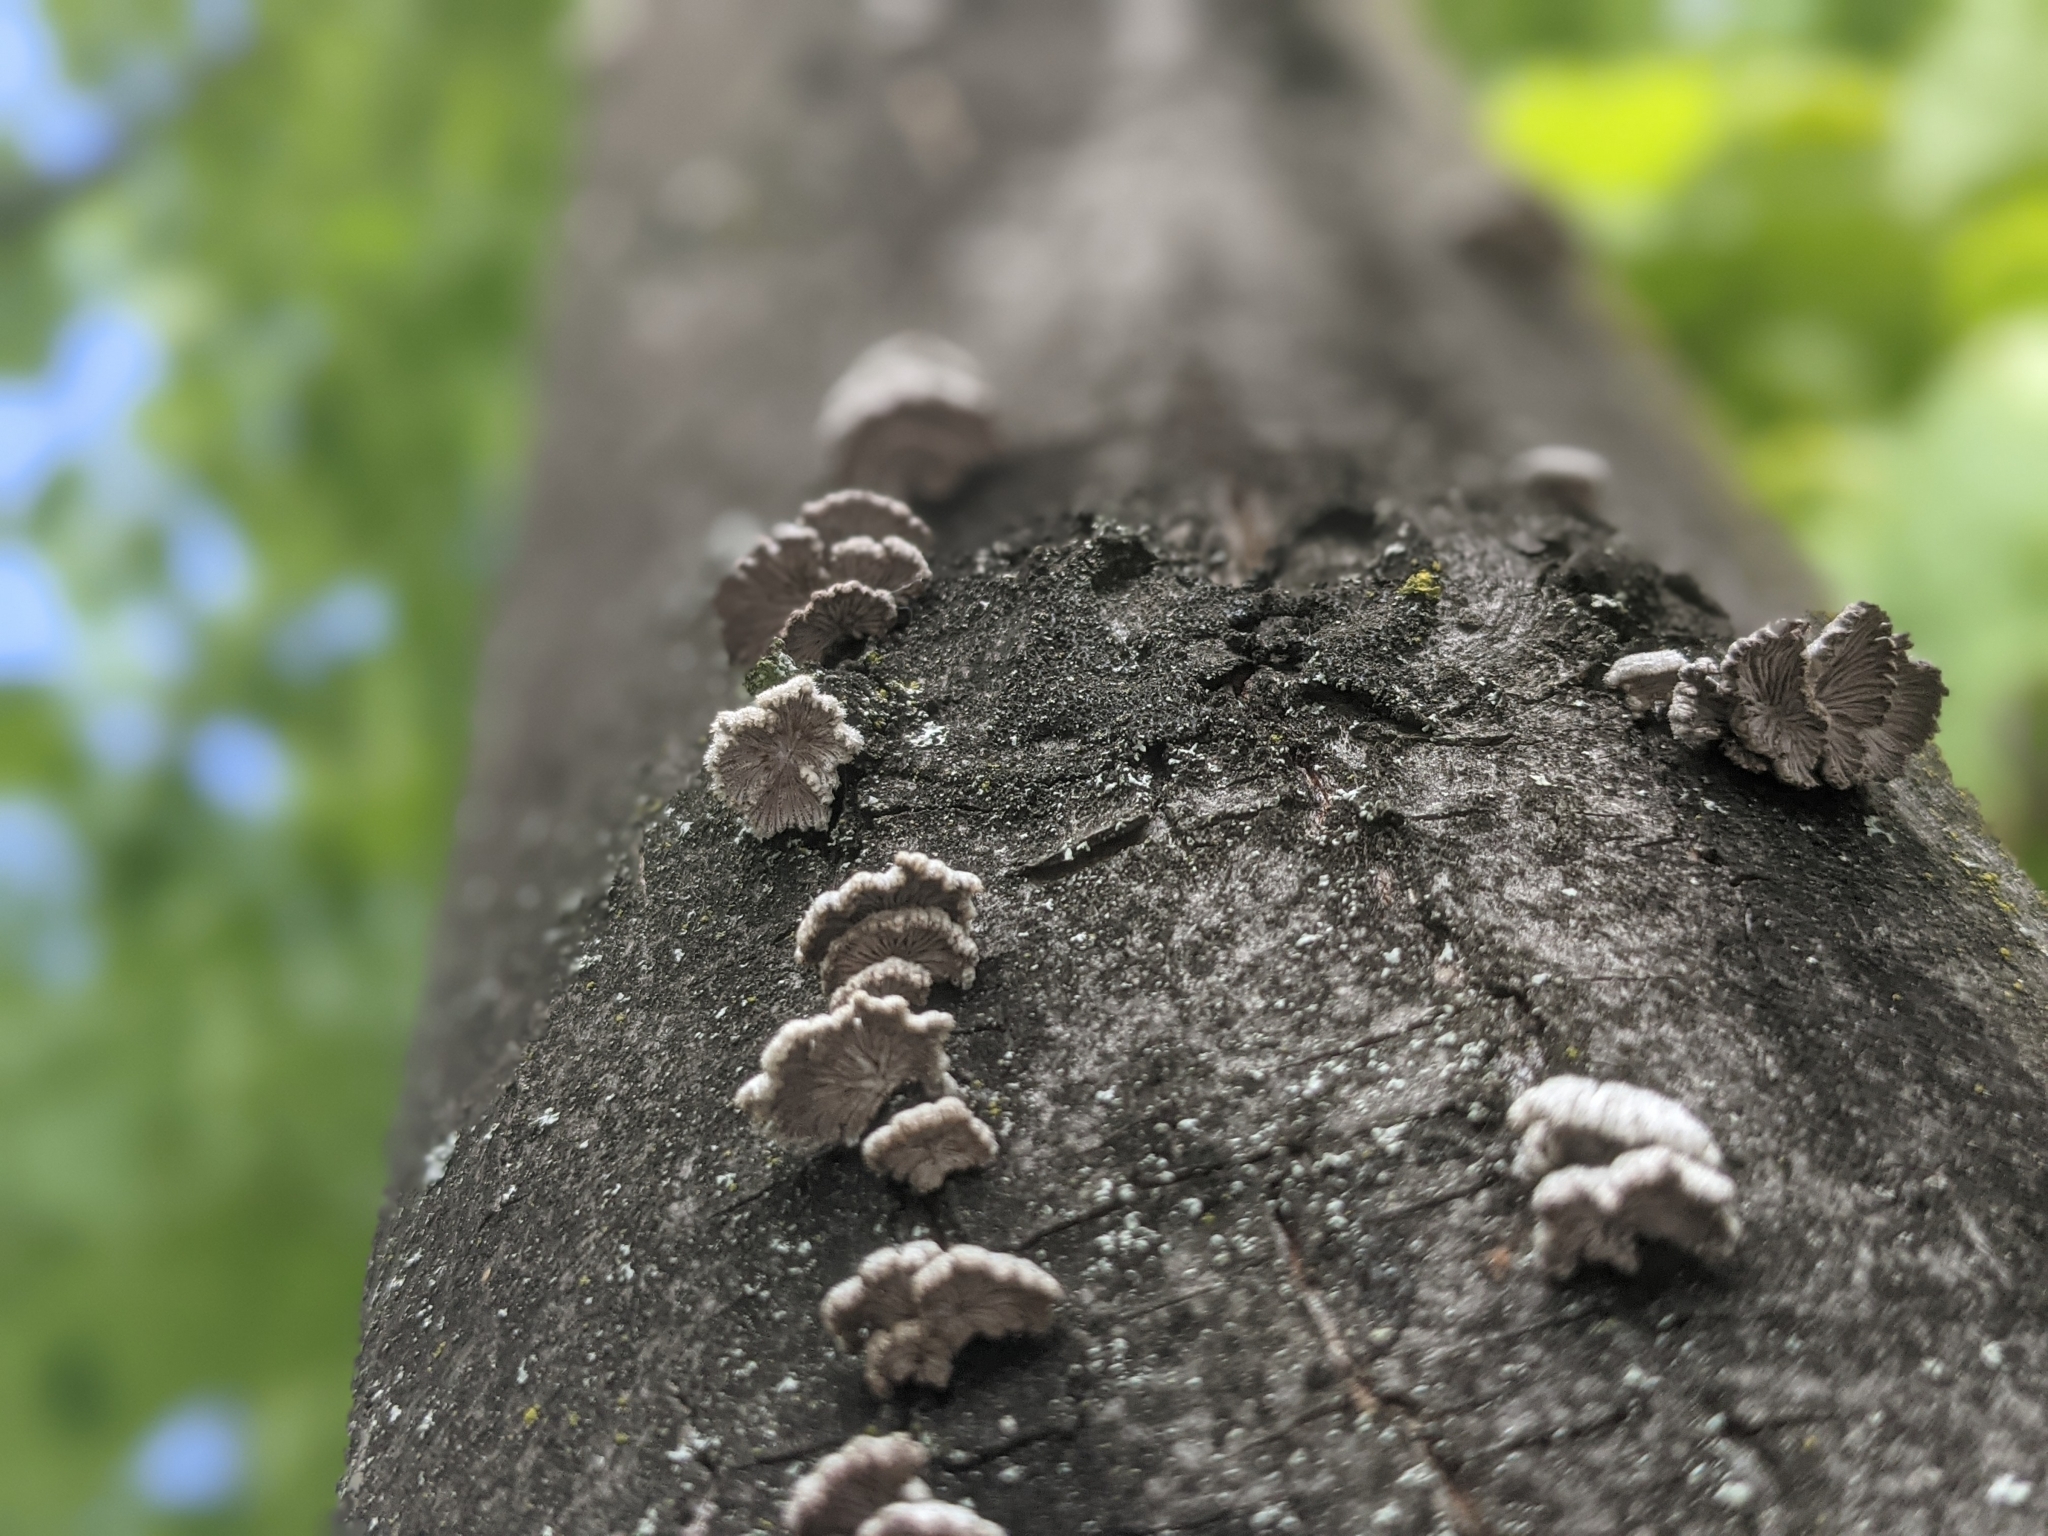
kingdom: Fungi
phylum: Basidiomycota
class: Agaricomycetes
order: Agaricales
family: Schizophyllaceae
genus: Schizophyllum
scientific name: Schizophyllum commune
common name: Common porecrust
